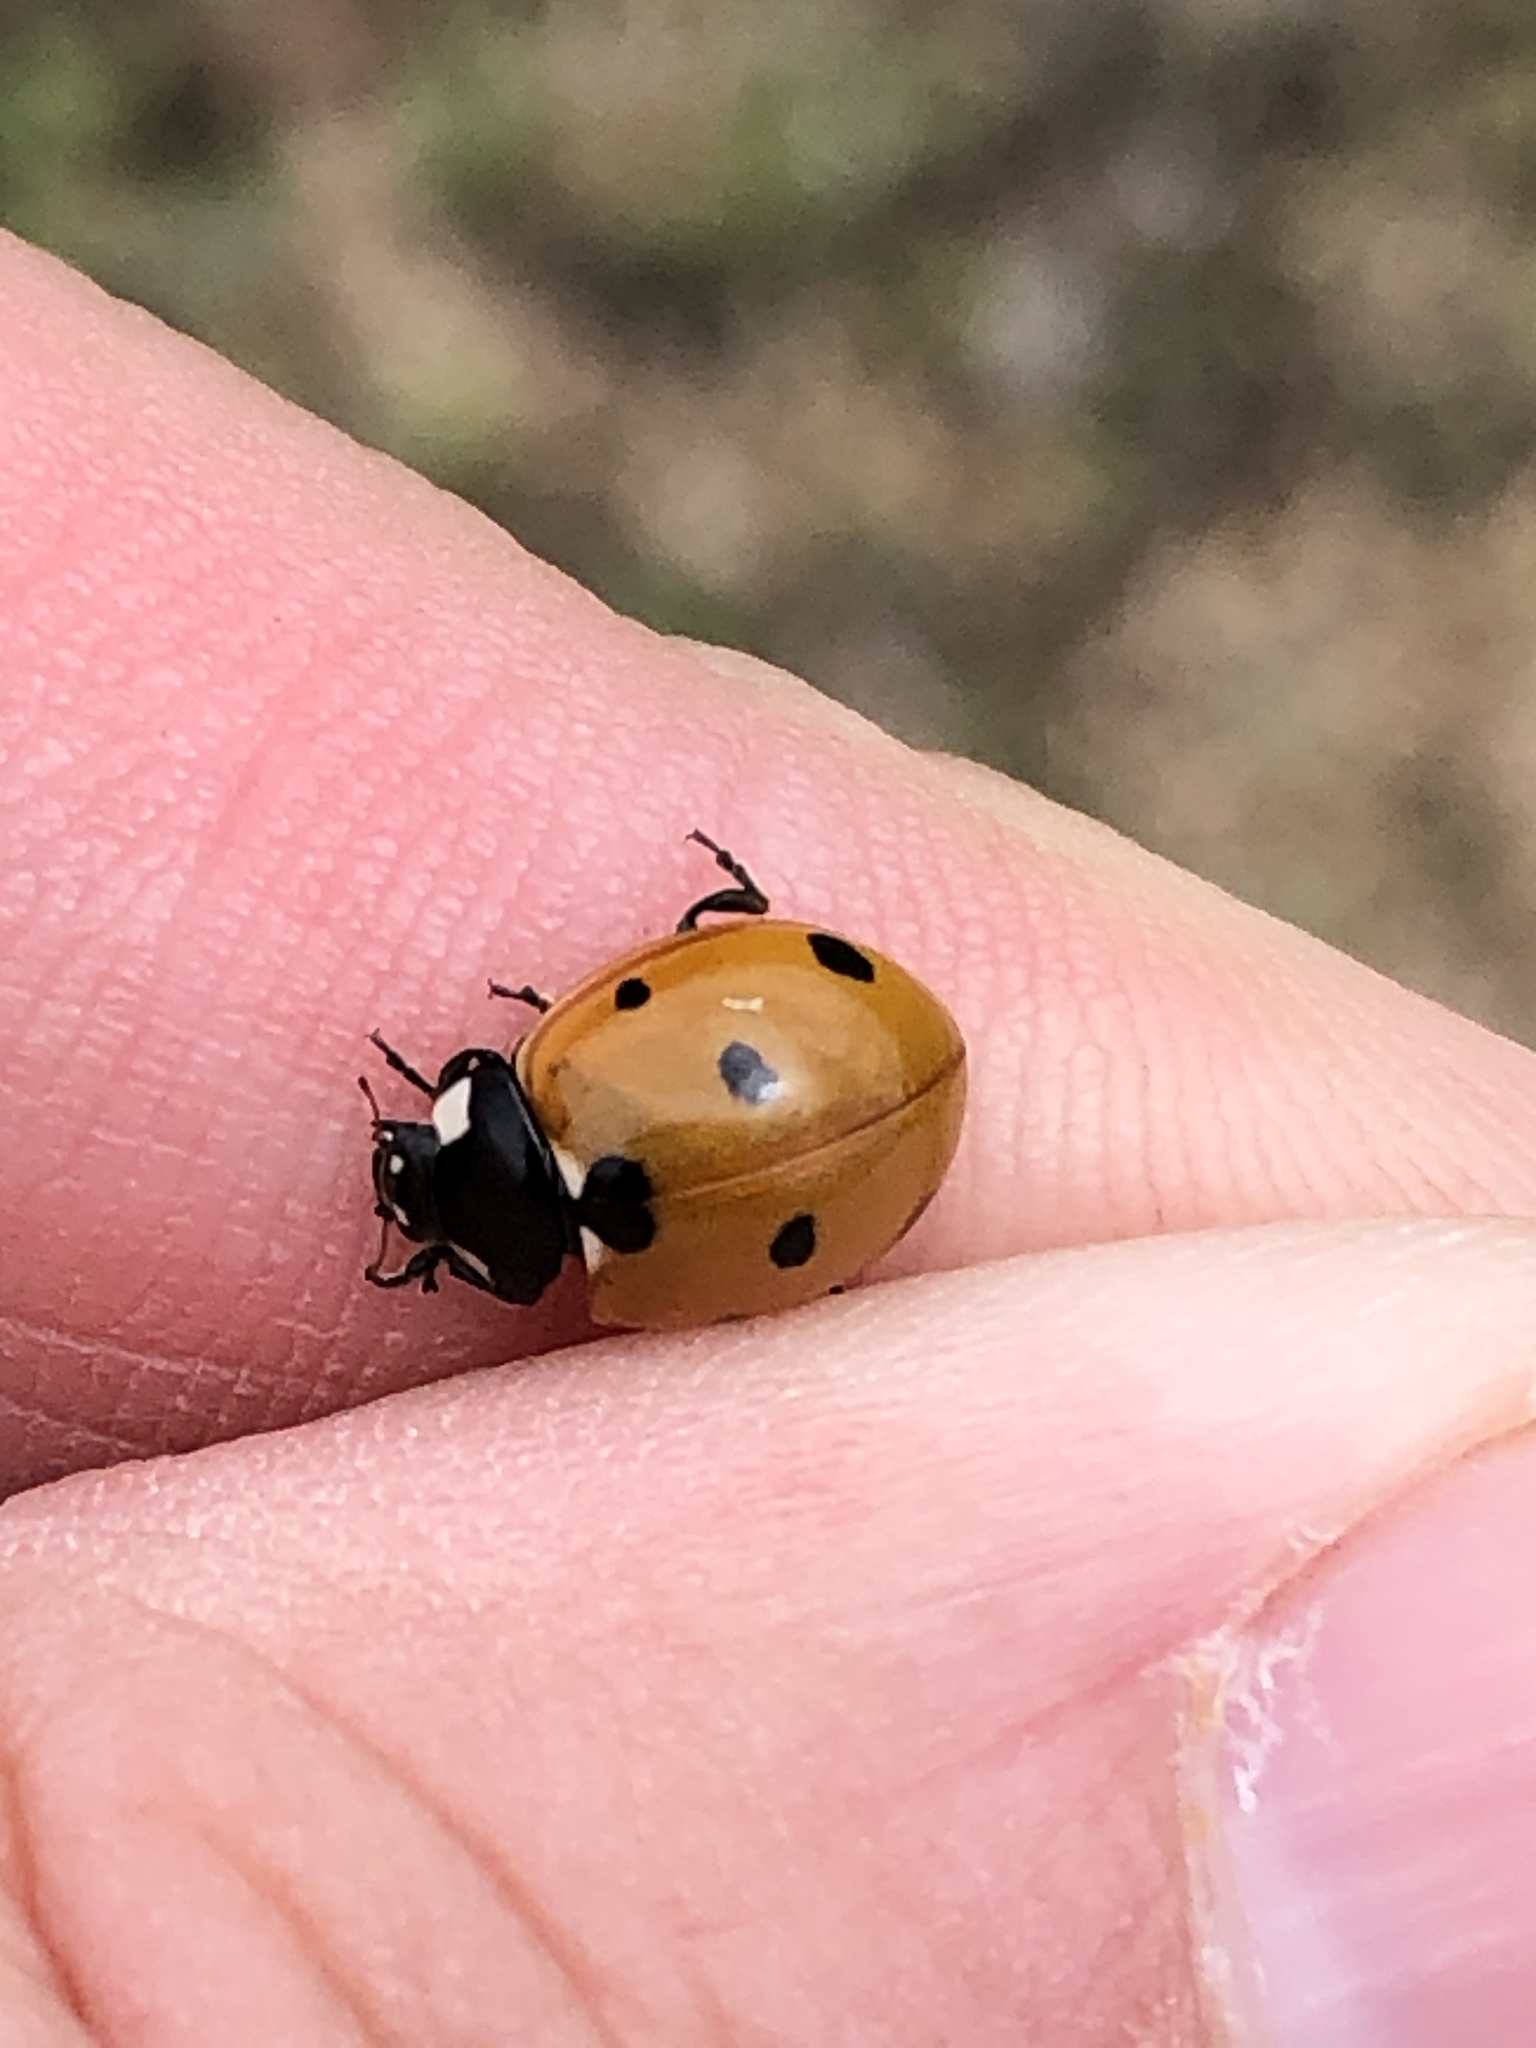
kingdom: Animalia
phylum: Arthropoda
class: Insecta
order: Coleoptera
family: Coccinellidae
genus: Coccinella
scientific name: Coccinella septempunctata
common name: Sevenspotted lady beetle
